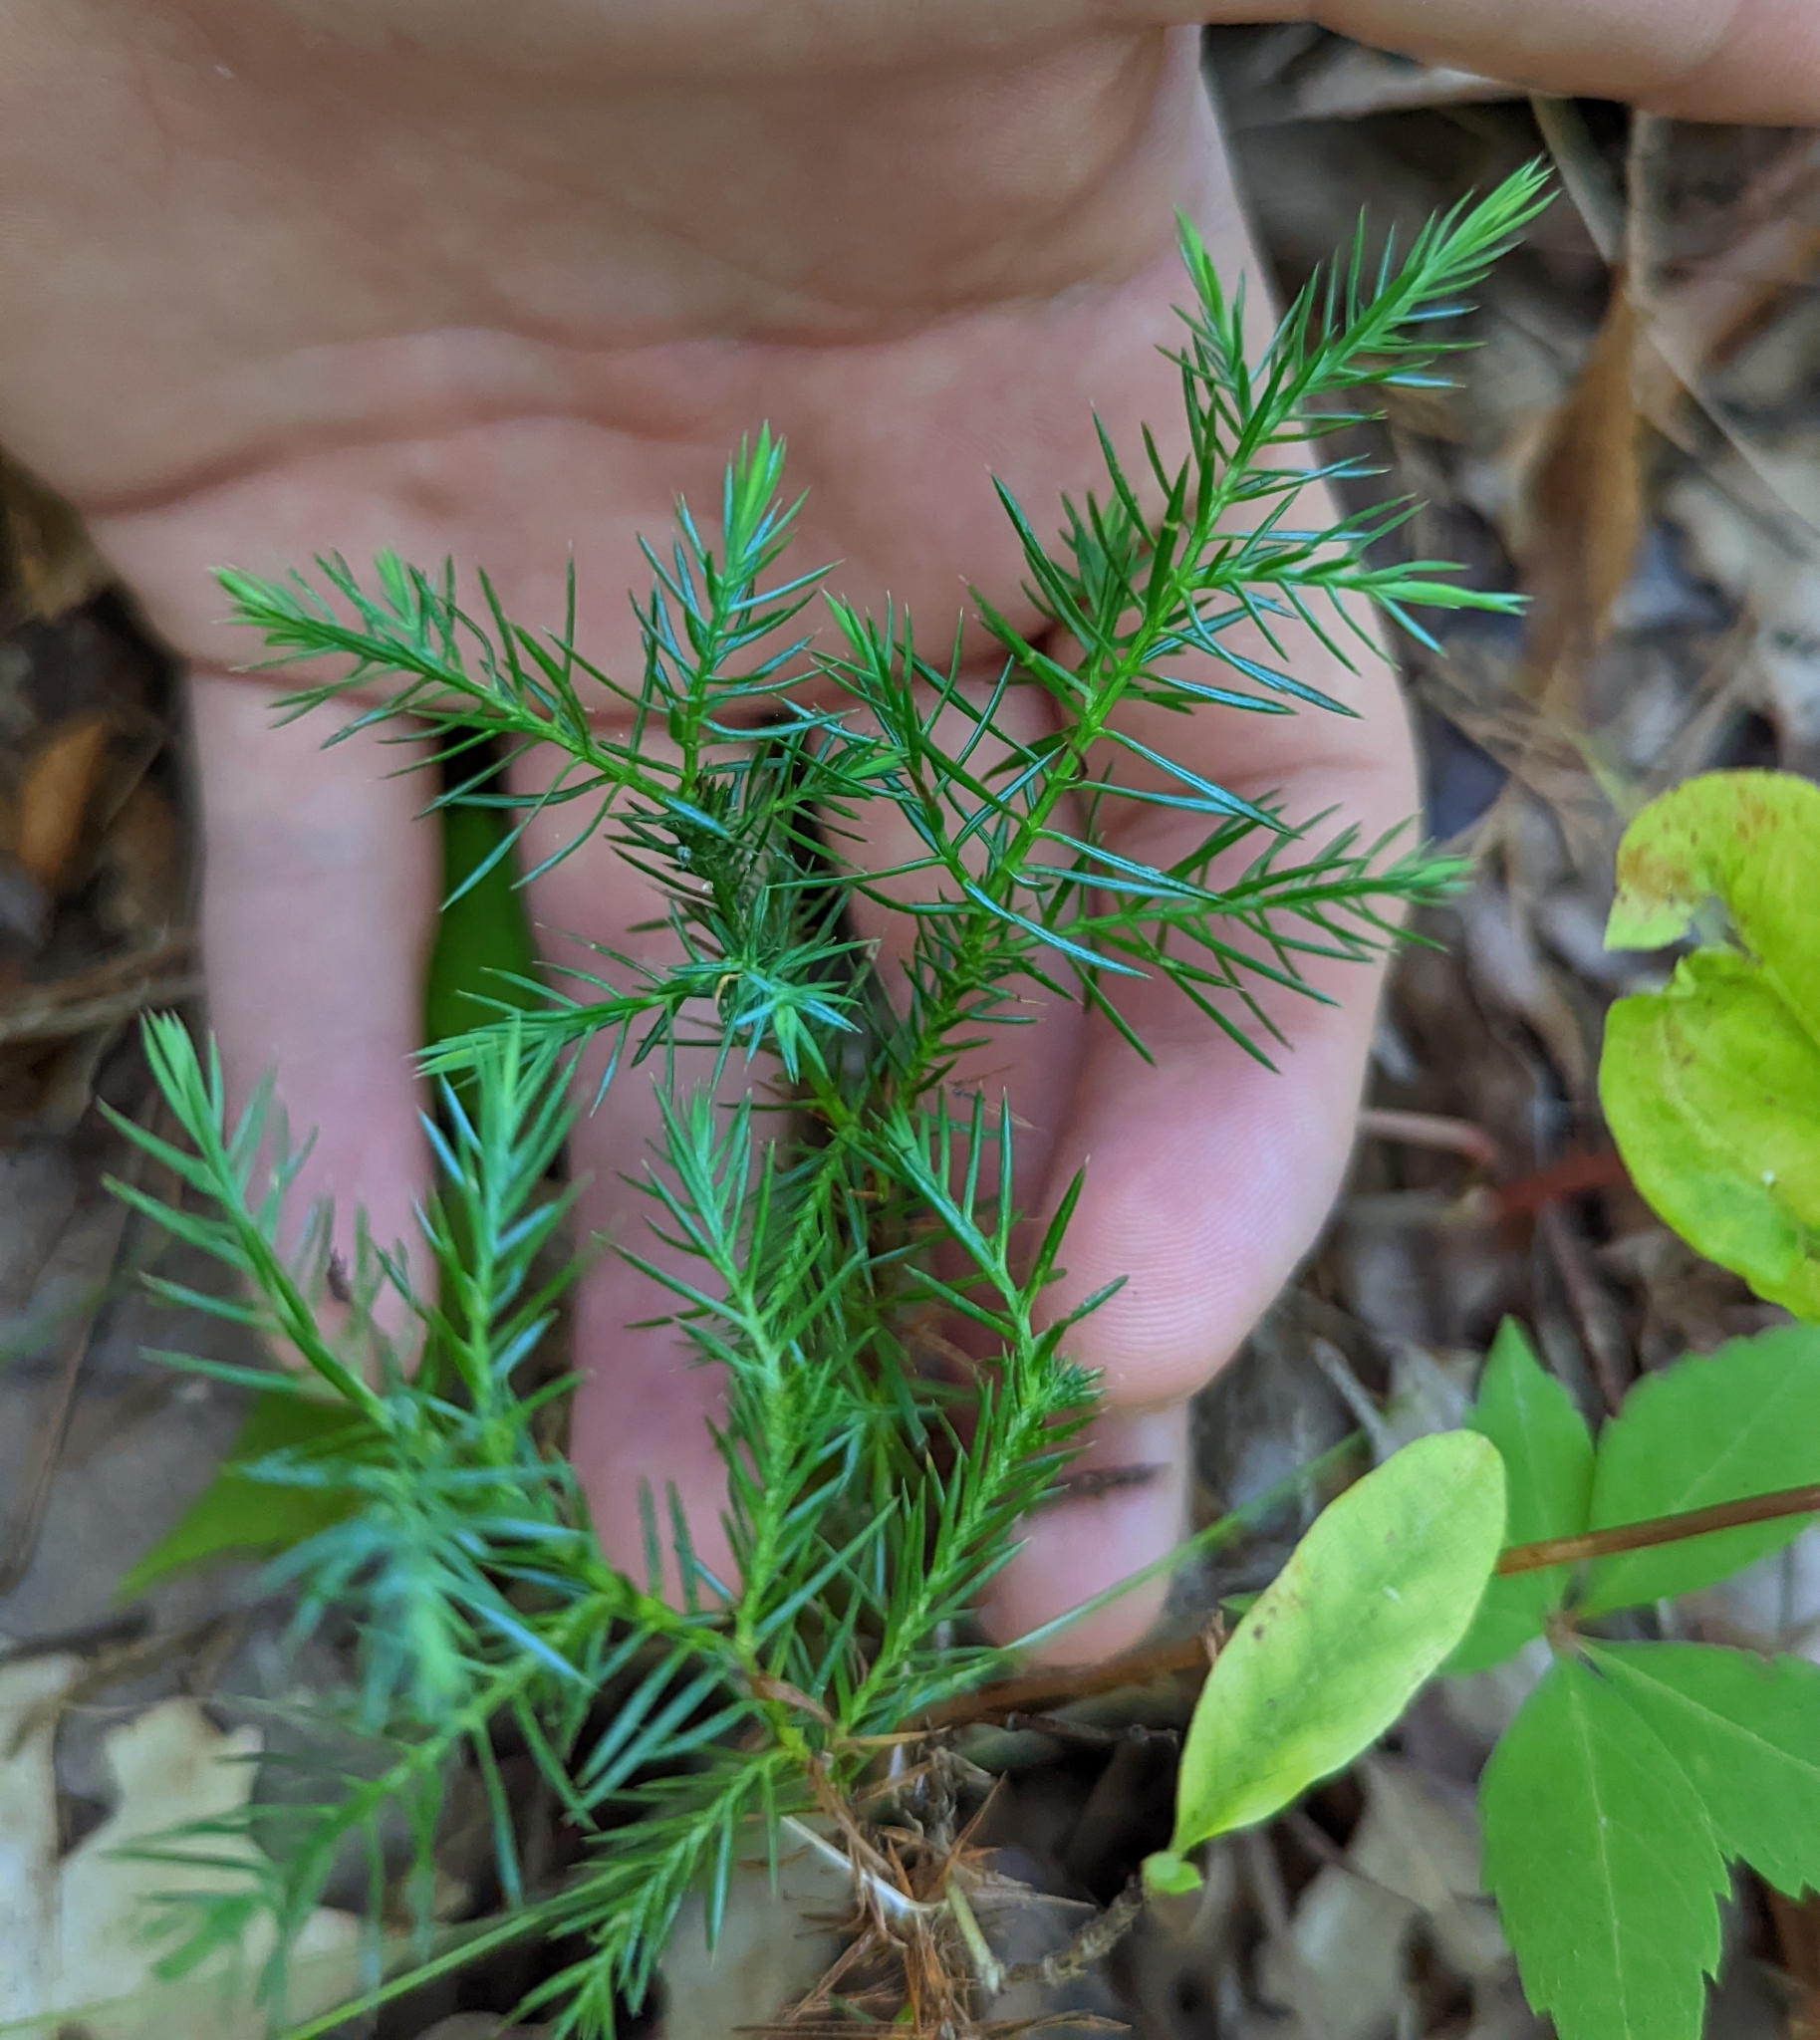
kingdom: Plantae
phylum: Tracheophyta
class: Pinopsida
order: Pinales
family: Cupressaceae
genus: Juniperus
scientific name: Juniperus virginiana
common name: Red juniper
